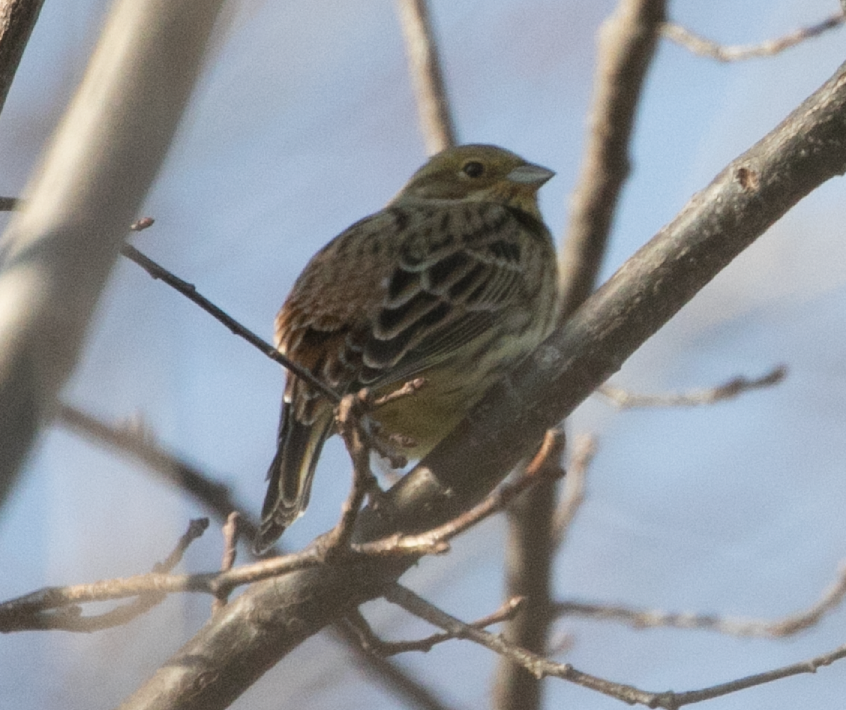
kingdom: Animalia
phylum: Chordata
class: Aves
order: Passeriformes
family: Emberizidae
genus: Emberiza
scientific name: Emberiza citrinella
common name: Yellowhammer
